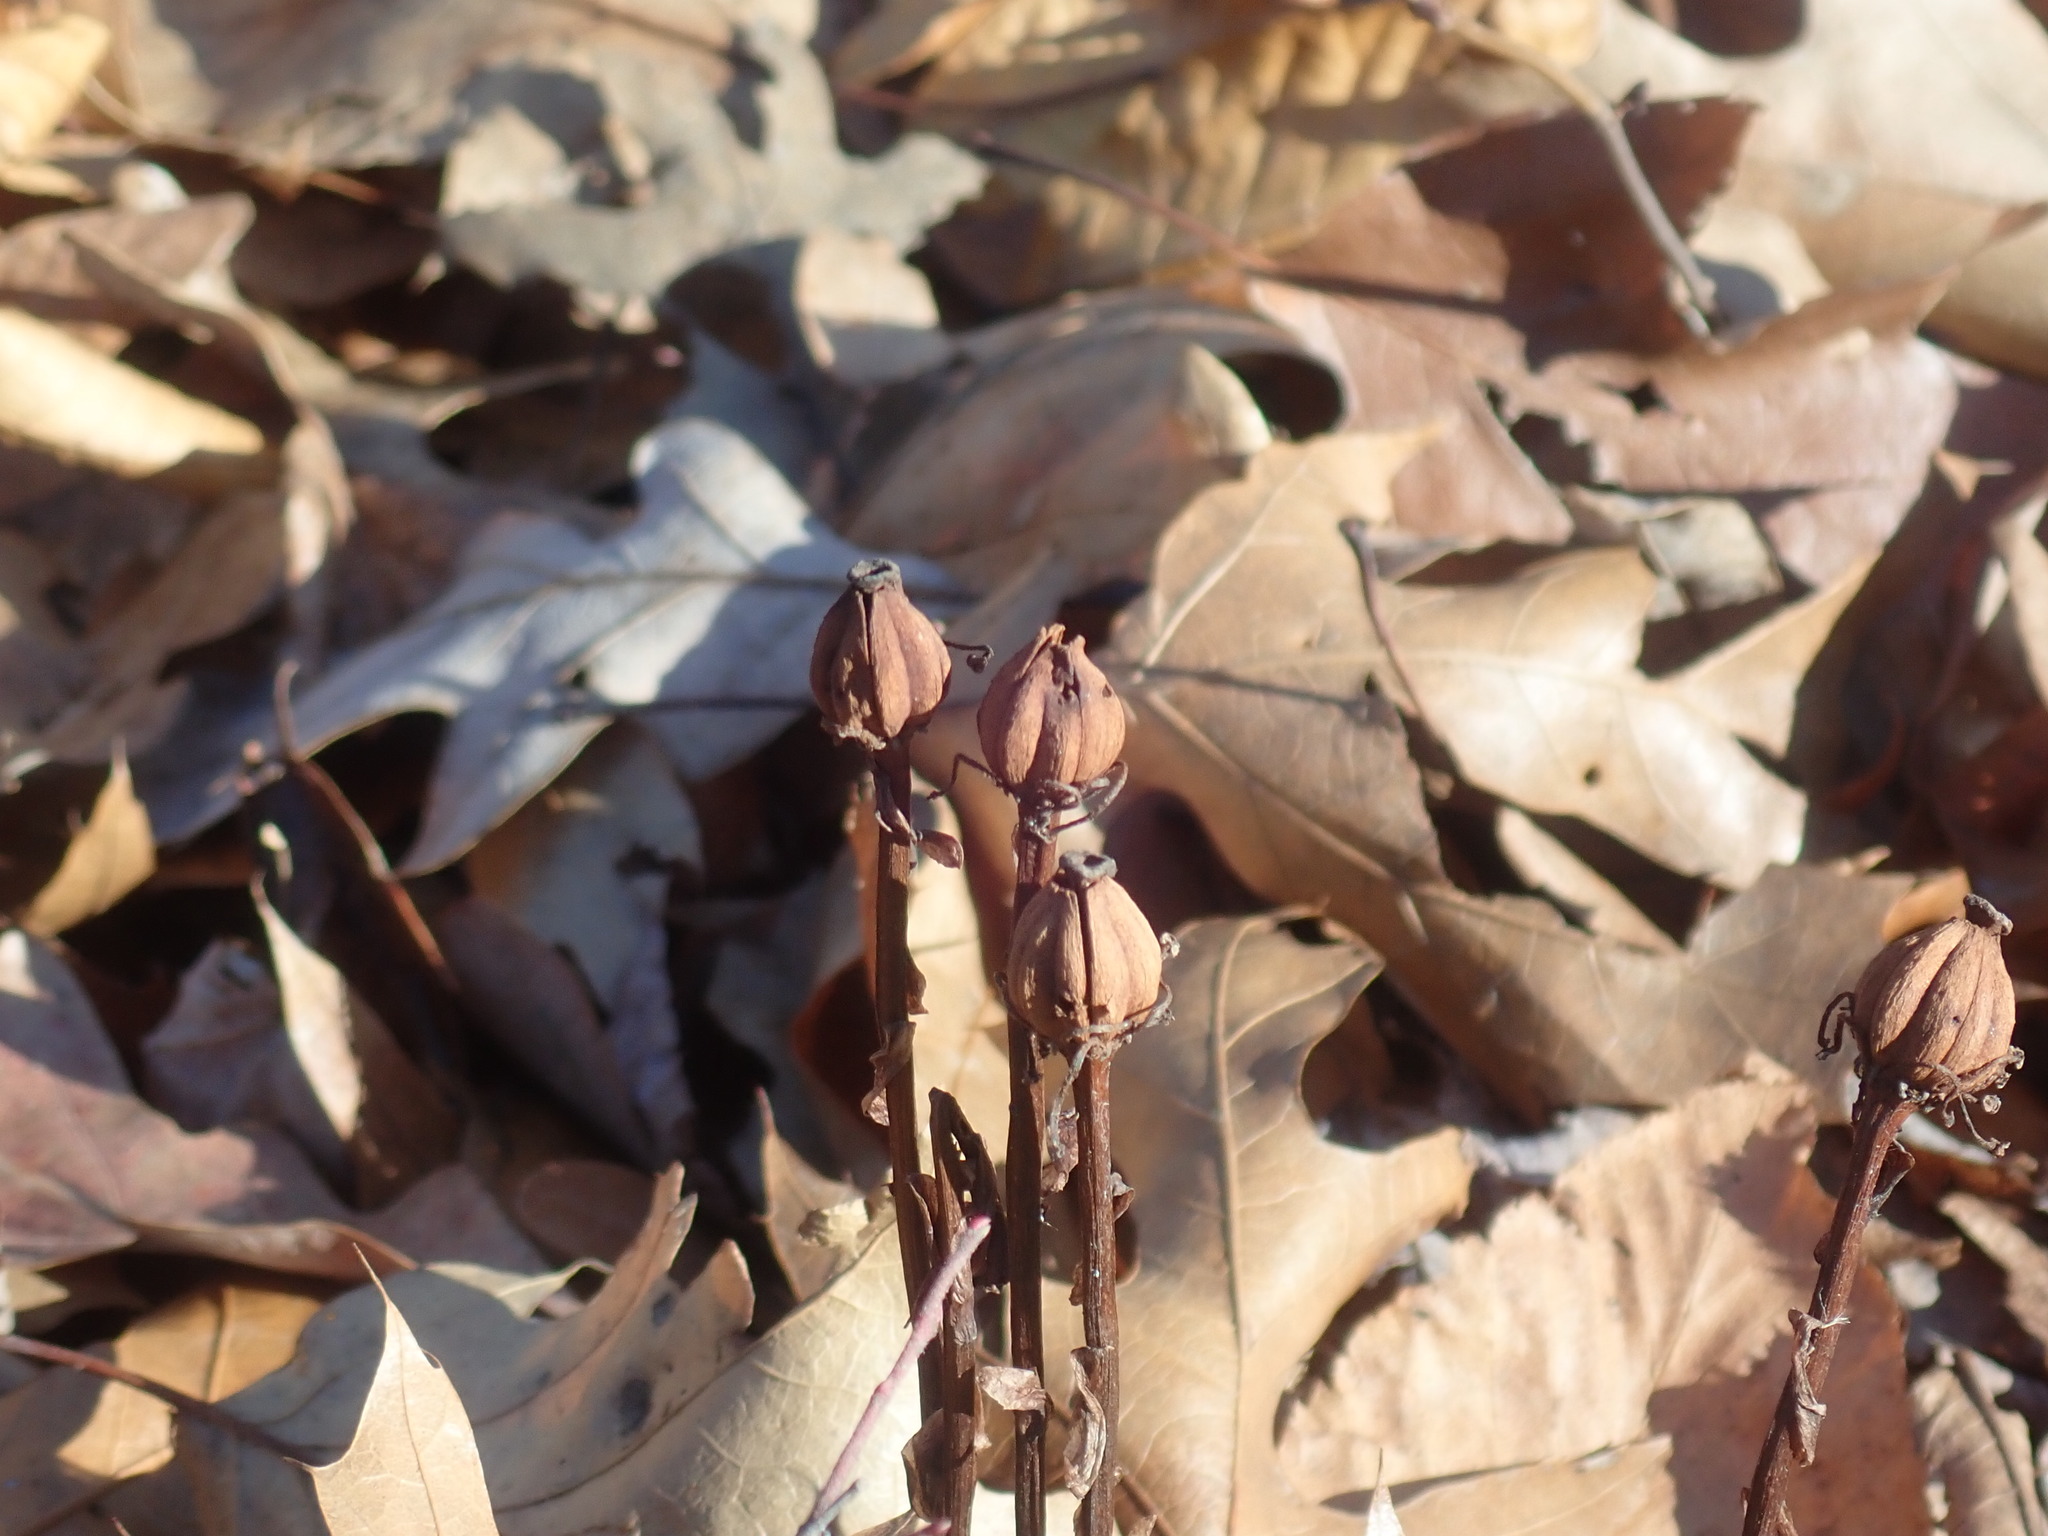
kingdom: Plantae
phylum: Tracheophyta
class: Magnoliopsida
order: Ericales
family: Ericaceae
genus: Monotropa
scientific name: Monotropa uniflora
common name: Convulsion root
